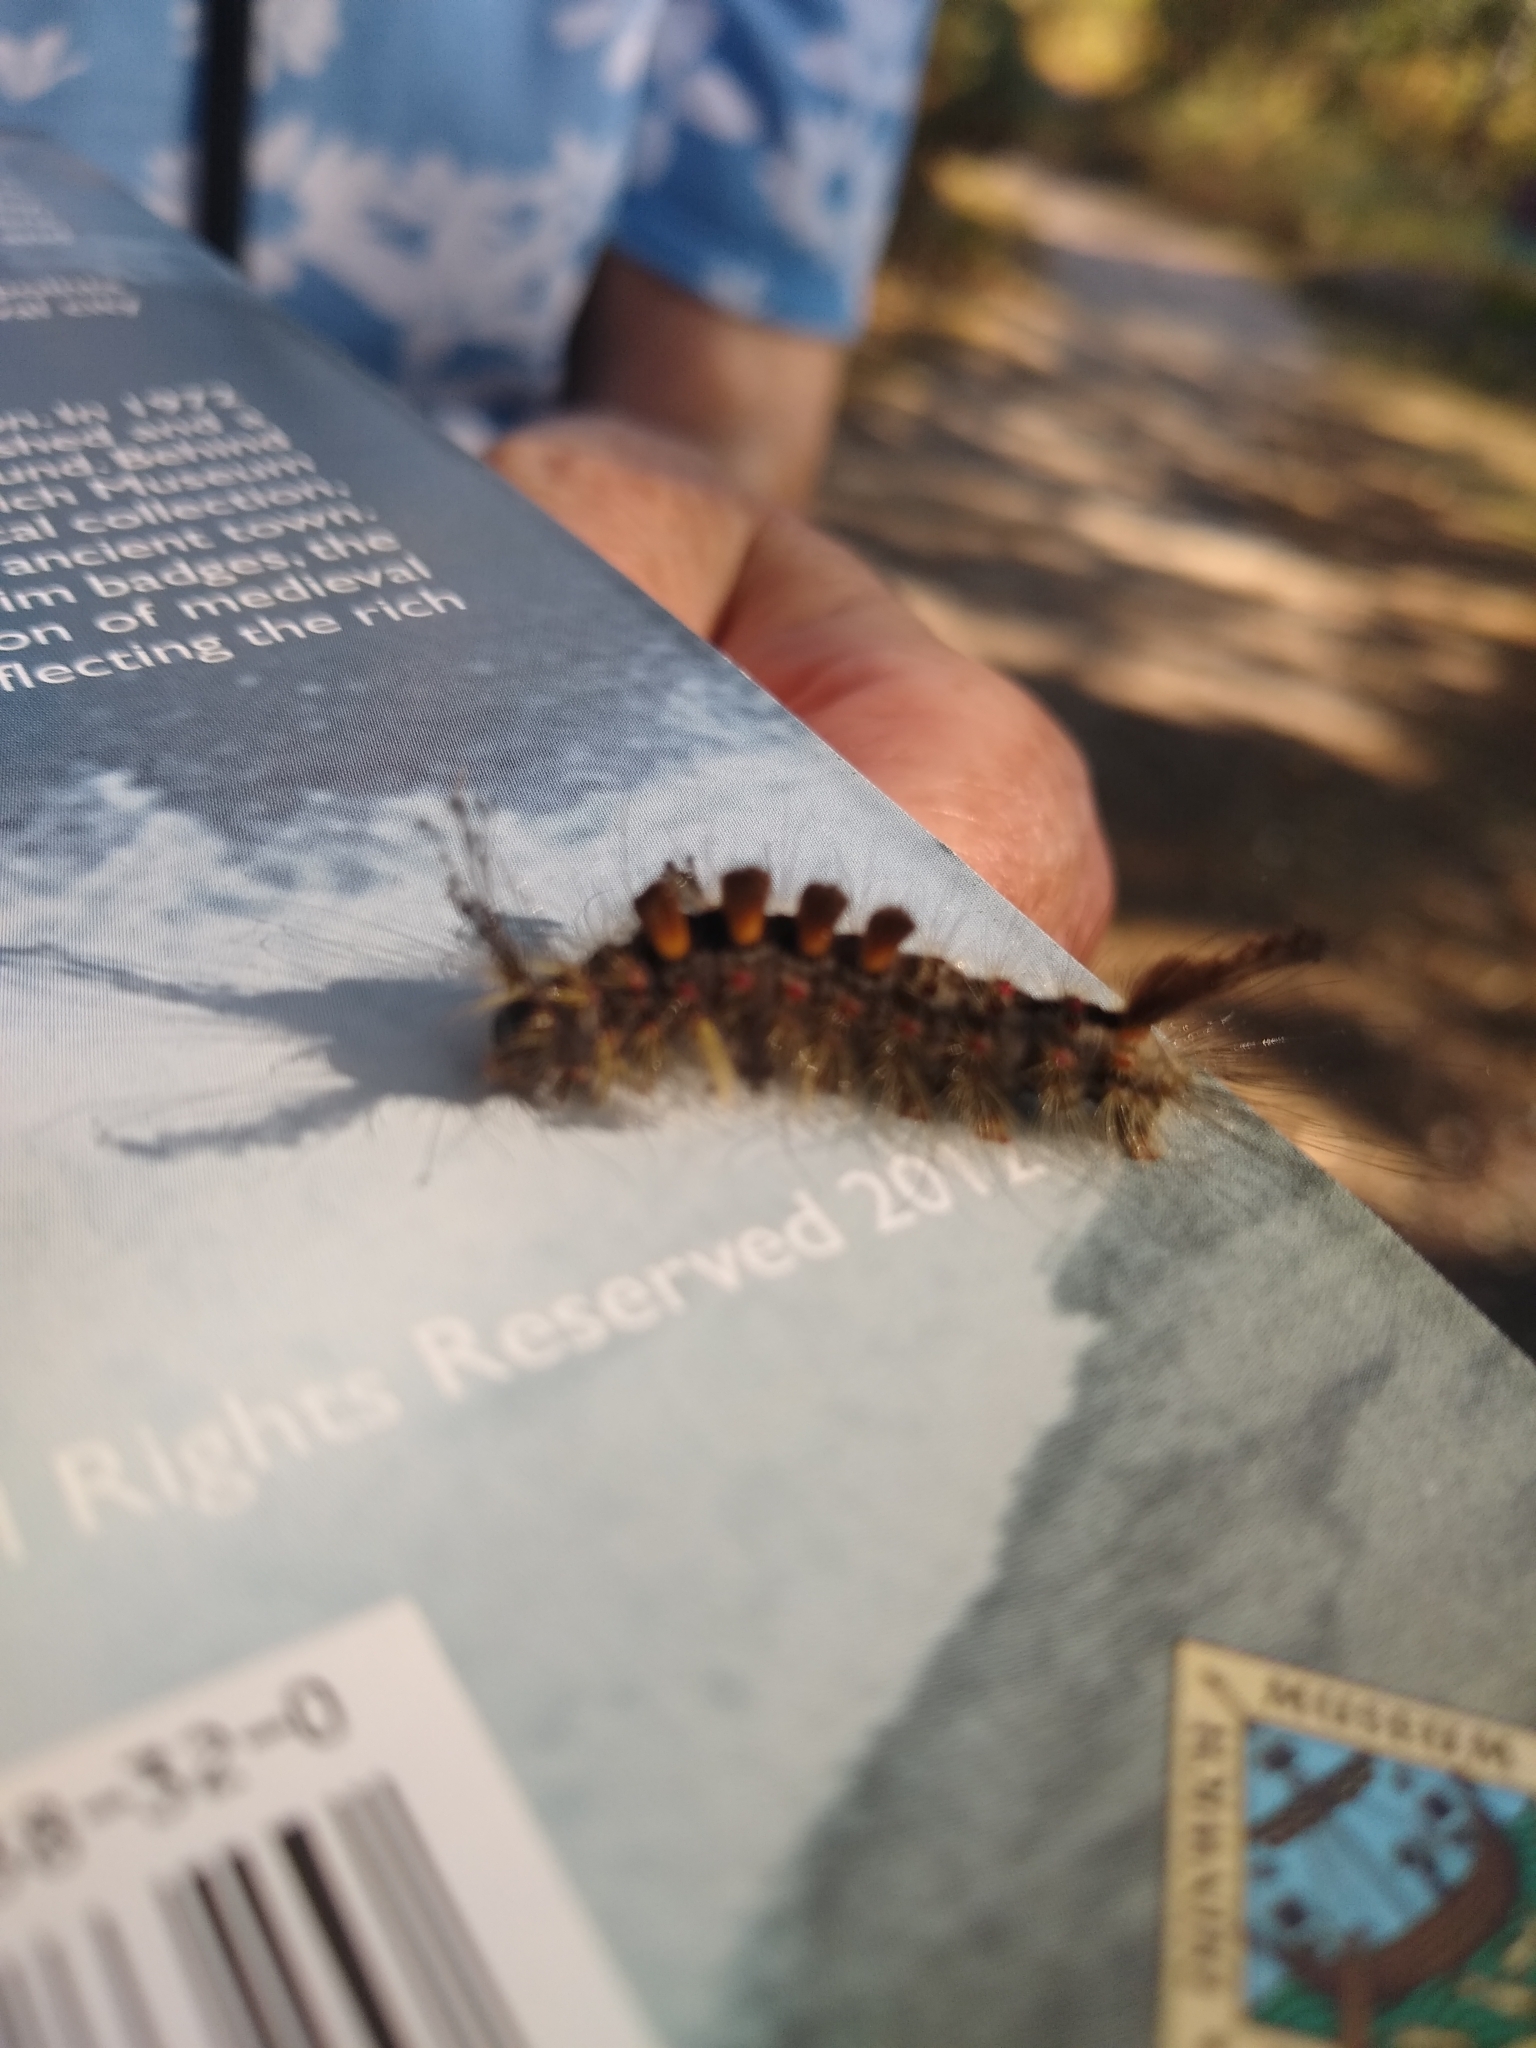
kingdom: Animalia
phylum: Arthropoda
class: Insecta
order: Lepidoptera
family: Erebidae
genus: Orgyia
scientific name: Orgyia antiqua
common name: Vapourer
